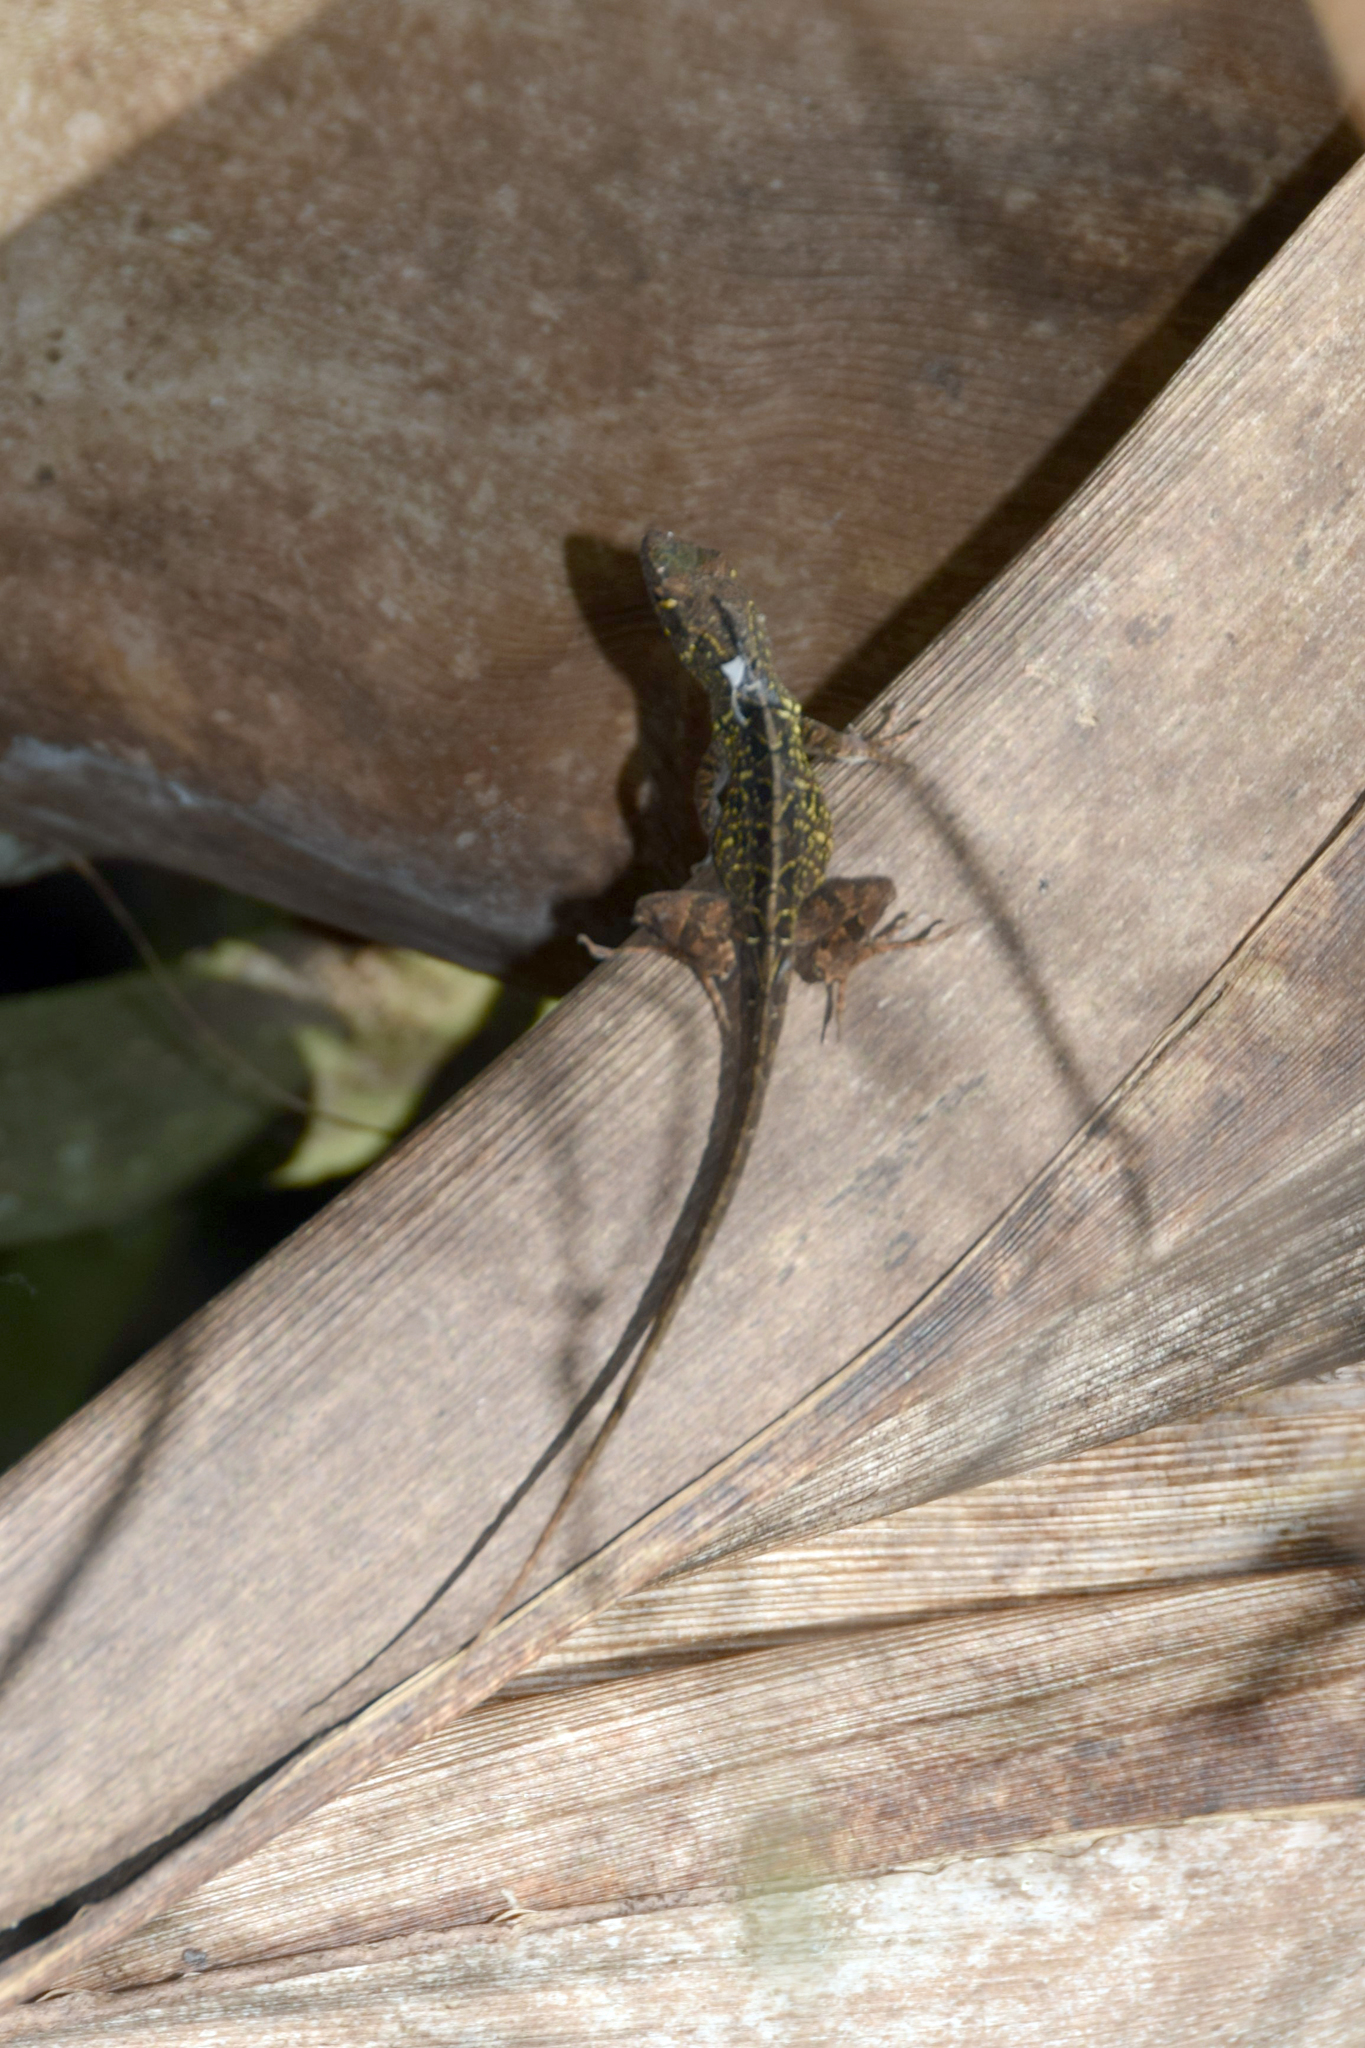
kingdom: Animalia
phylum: Chordata
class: Squamata
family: Dactyloidae
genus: Anolis
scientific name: Anolis sagrei
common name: Brown anole
